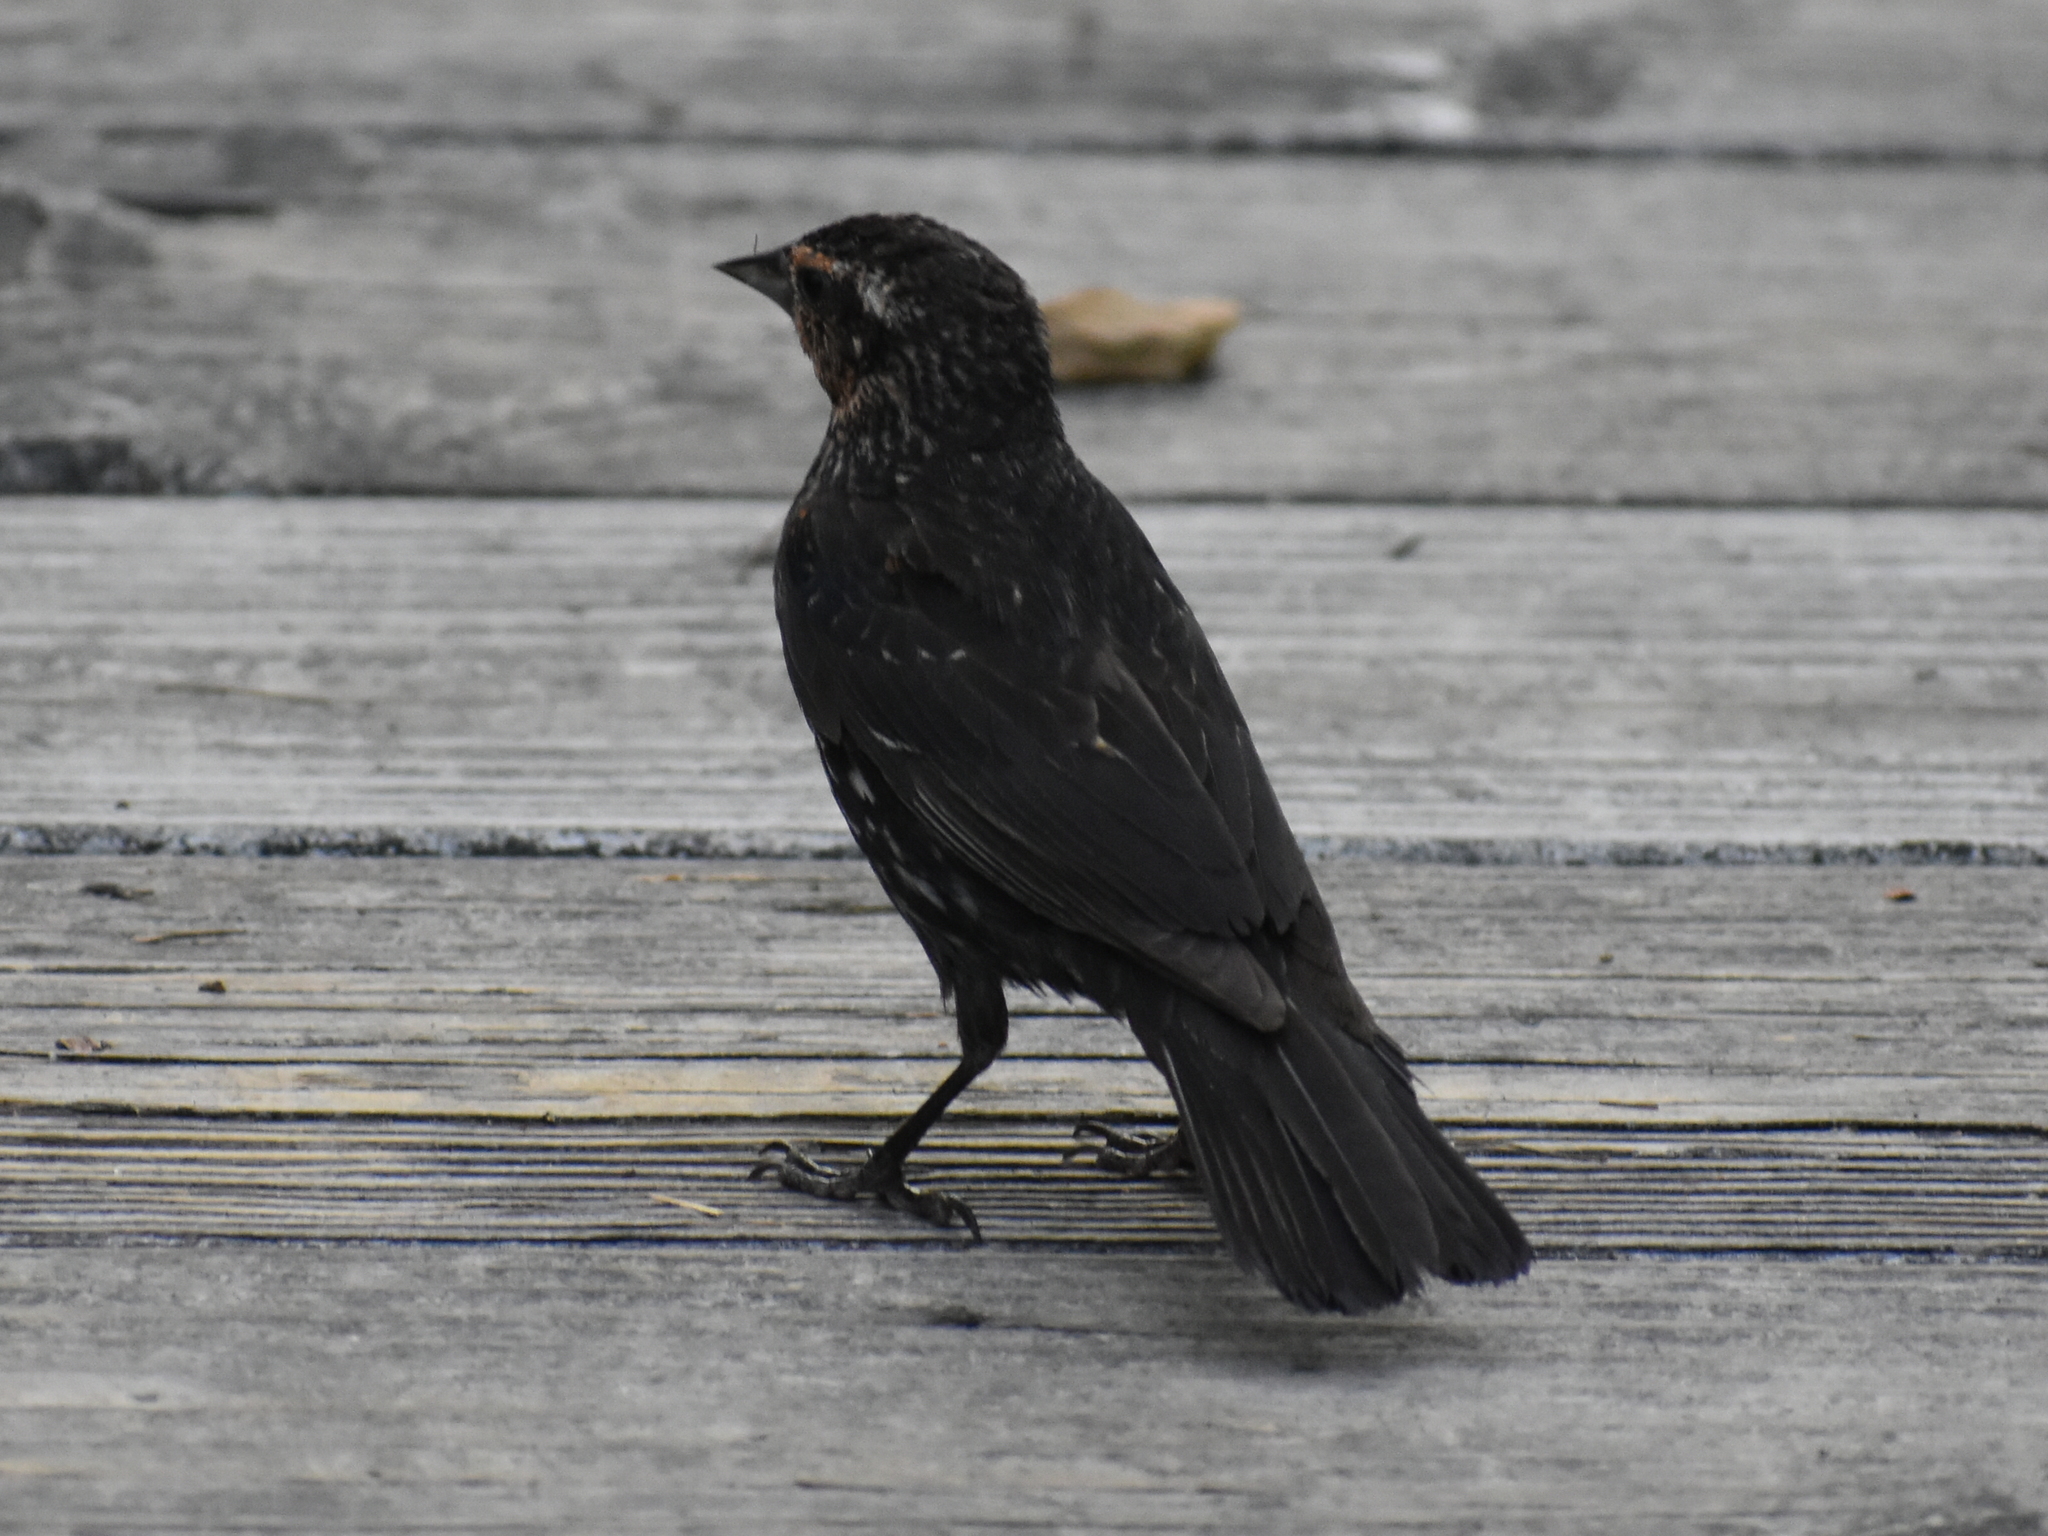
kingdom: Animalia
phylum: Chordata
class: Aves
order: Passeriformes
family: Icteridae
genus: Agelaius
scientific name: Agelaius phoeniceus
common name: Red-winged blackbird
